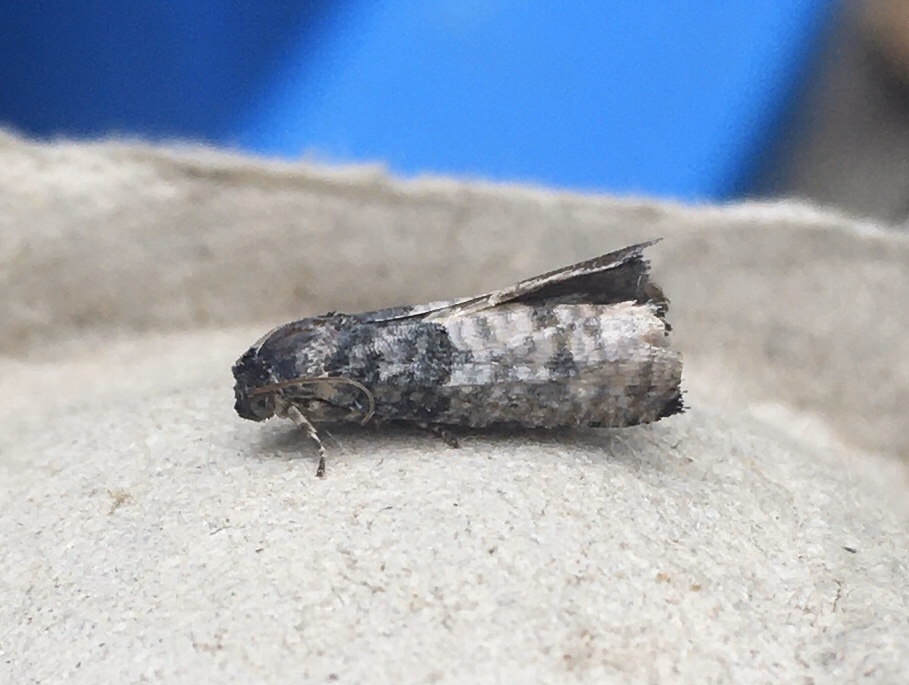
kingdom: Animalia
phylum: Arthropoda
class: Insecta
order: Lepidoptera
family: Tortricidae
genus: Epiblema
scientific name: Epiblema obfuscana
